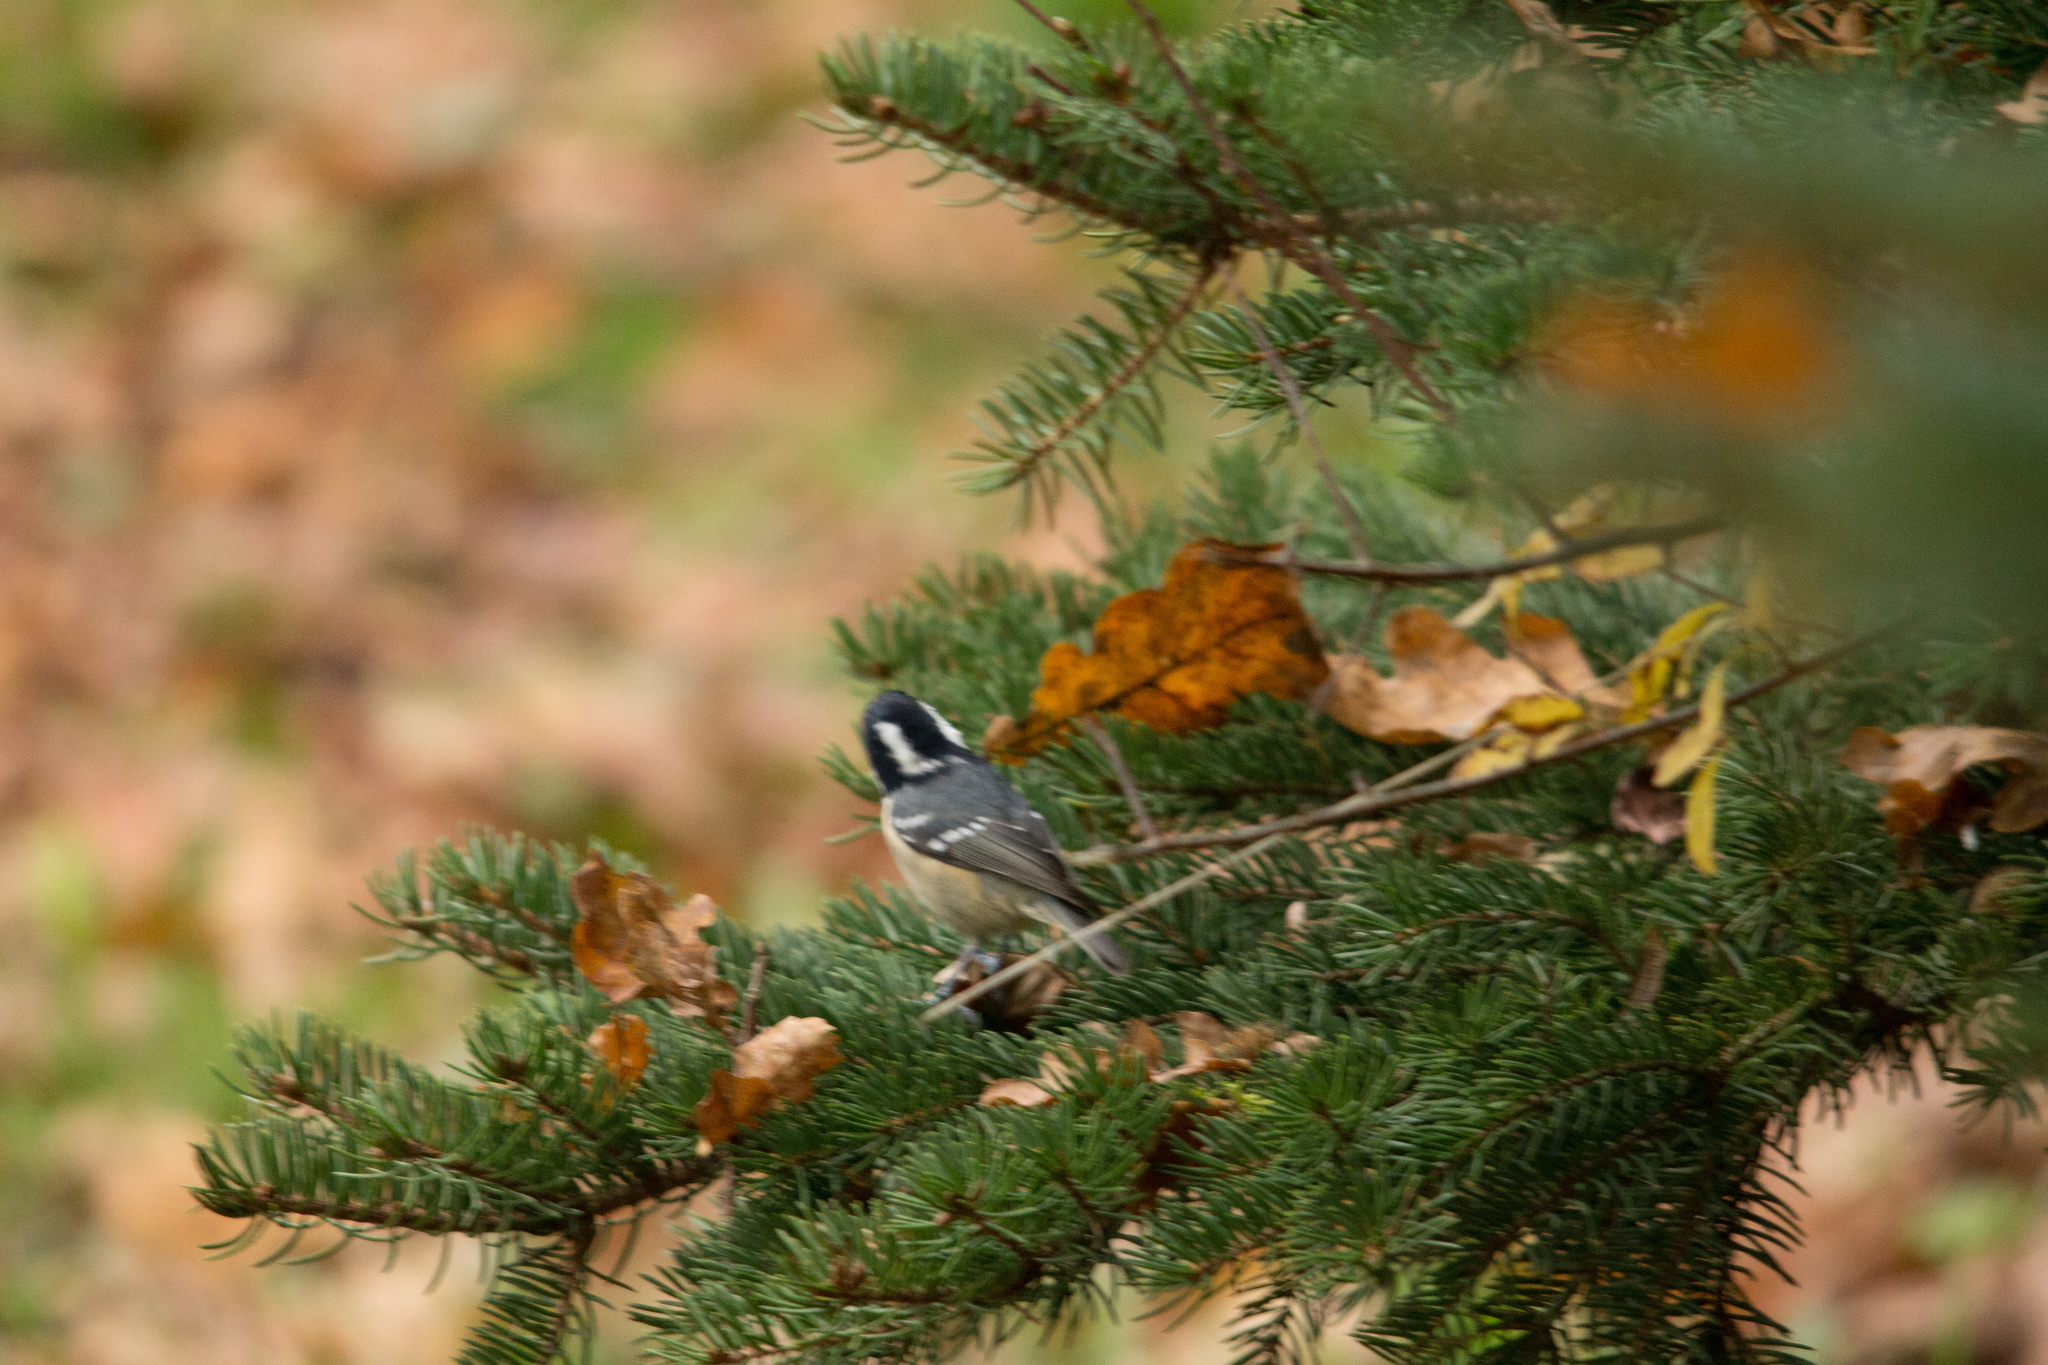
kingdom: Animalia
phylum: Chordata
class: Aves
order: Passeriformes
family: Paridae
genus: Periparus
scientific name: Periparus ater
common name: Coal tit
